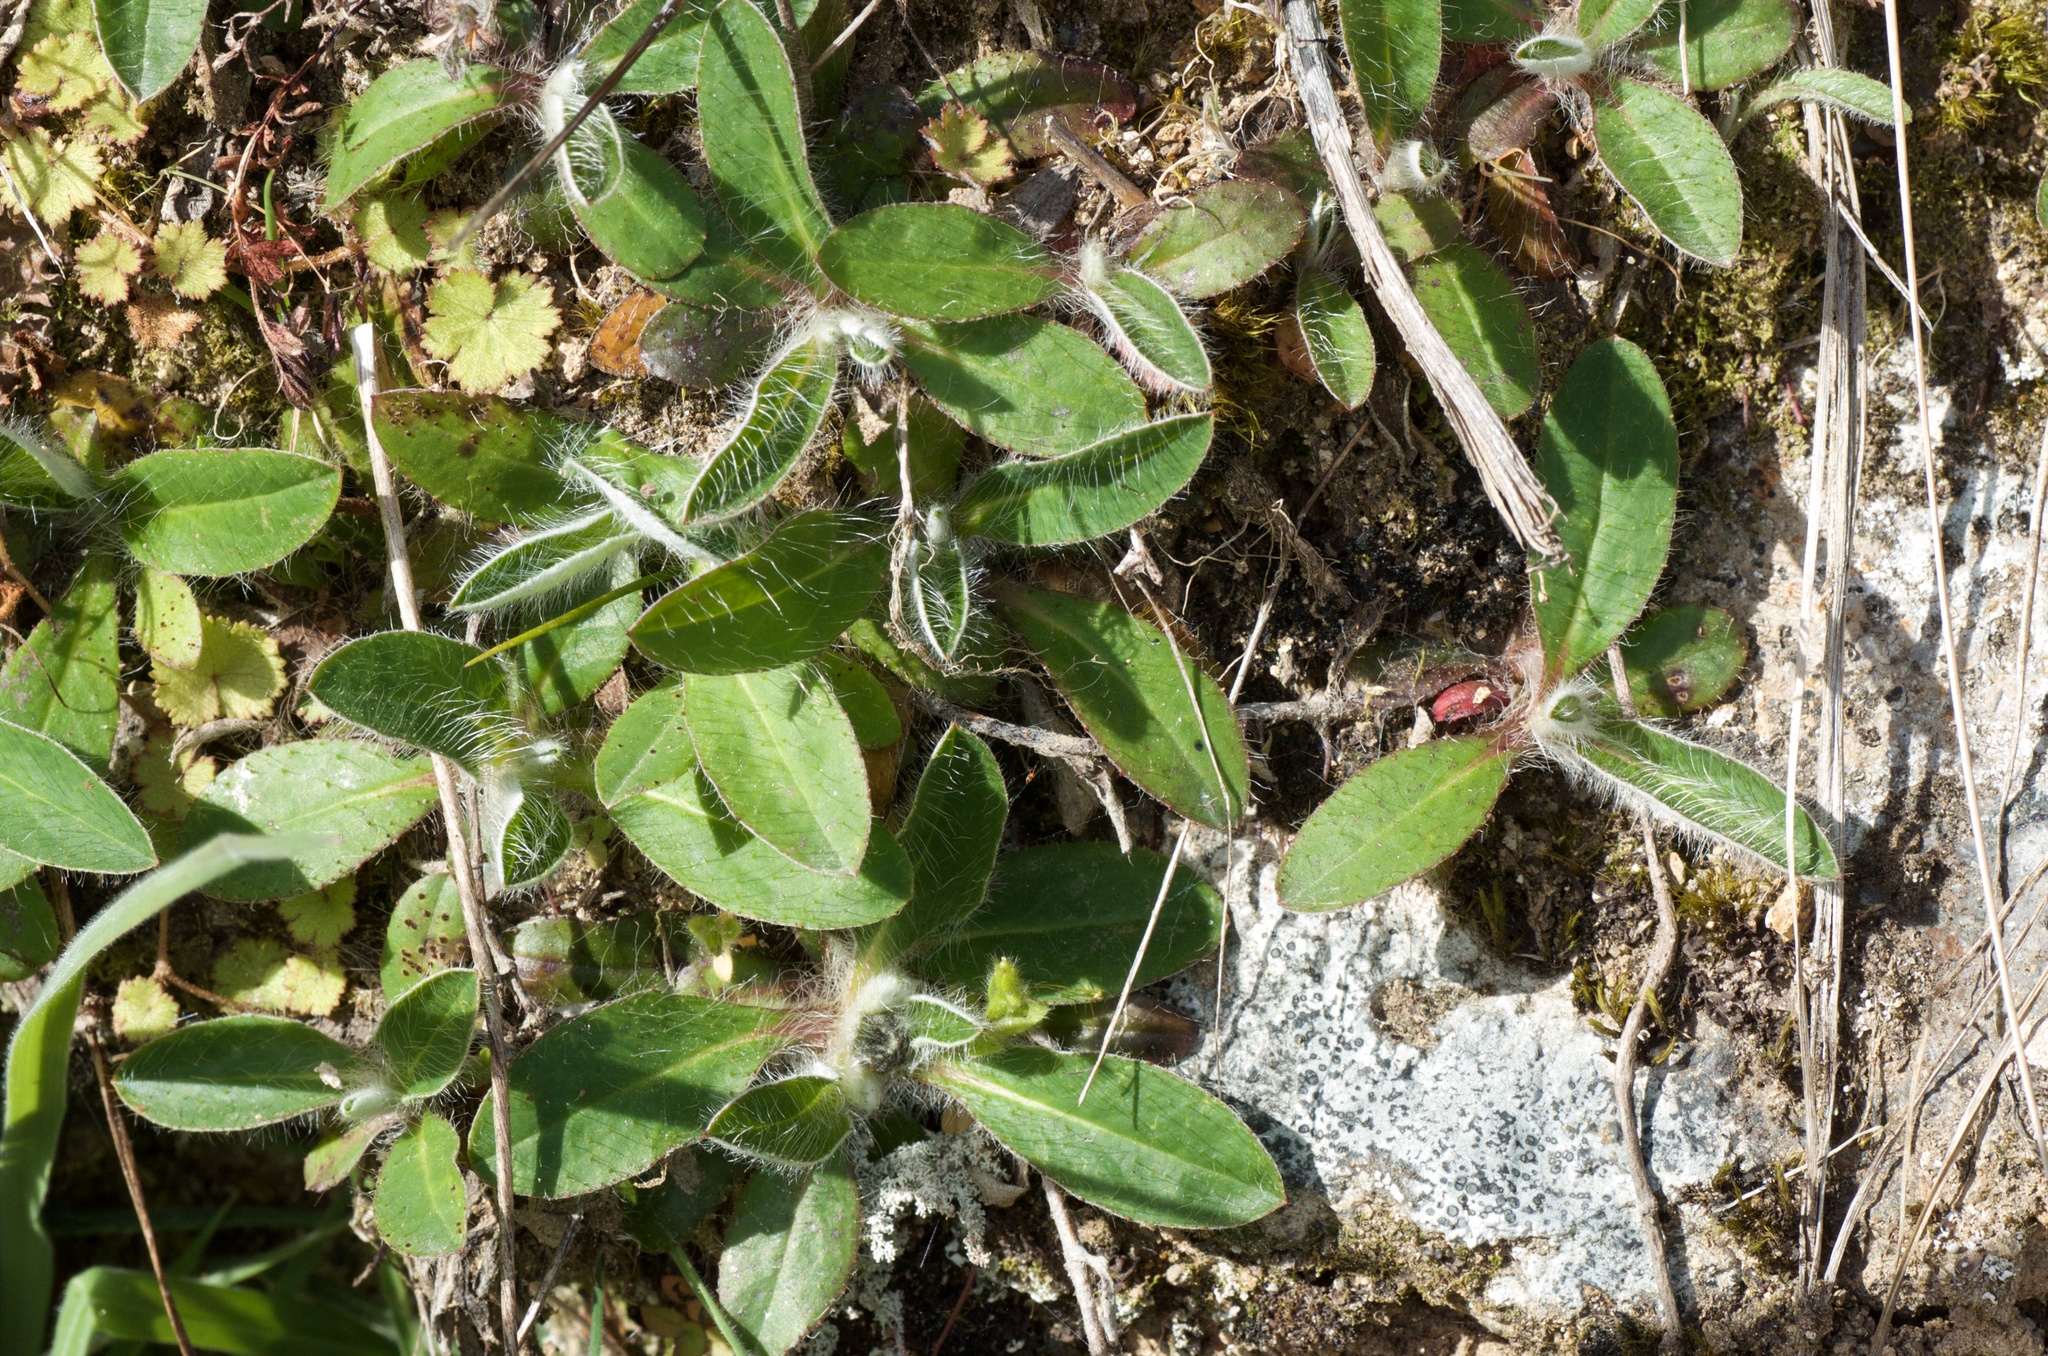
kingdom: Plantae
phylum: Tracheophyta
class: Magnoliopsida
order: Asterales
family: Asteraceae
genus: Pilosella
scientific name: Pilosella officinarum
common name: Mouse-ear hawkweed
